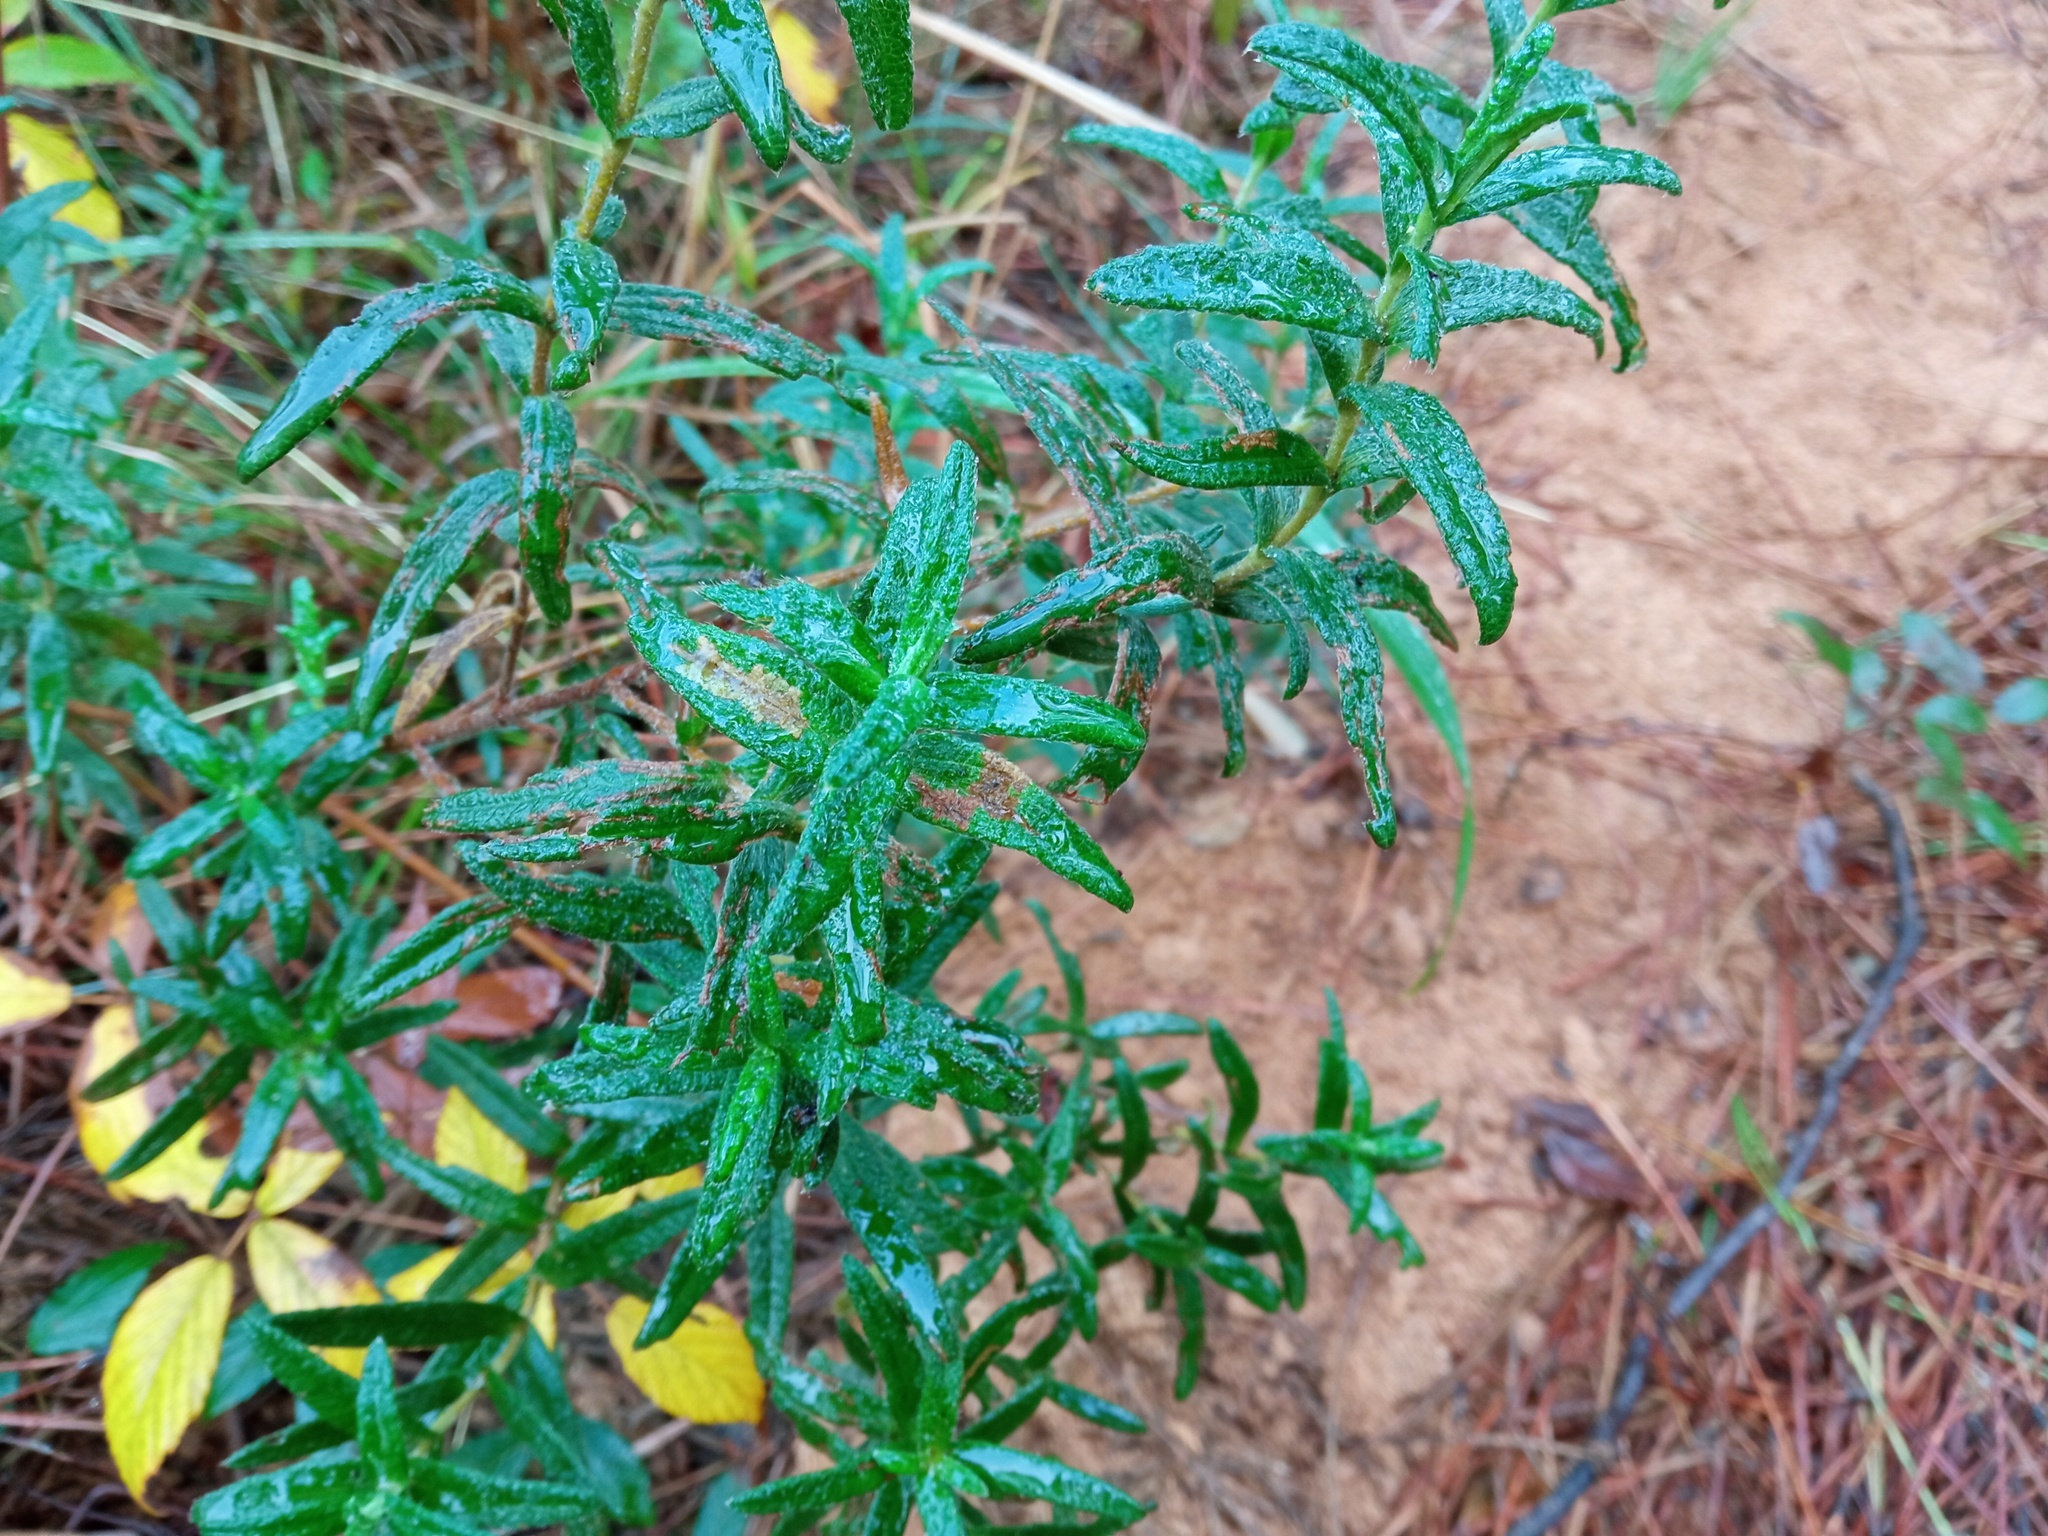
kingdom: Plantae
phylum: Tracheophyta
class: Magnoliopsida
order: Malvales
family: Cistaceae
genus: Cistus
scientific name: Cistus monspeliensis
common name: Montpelier cistus
